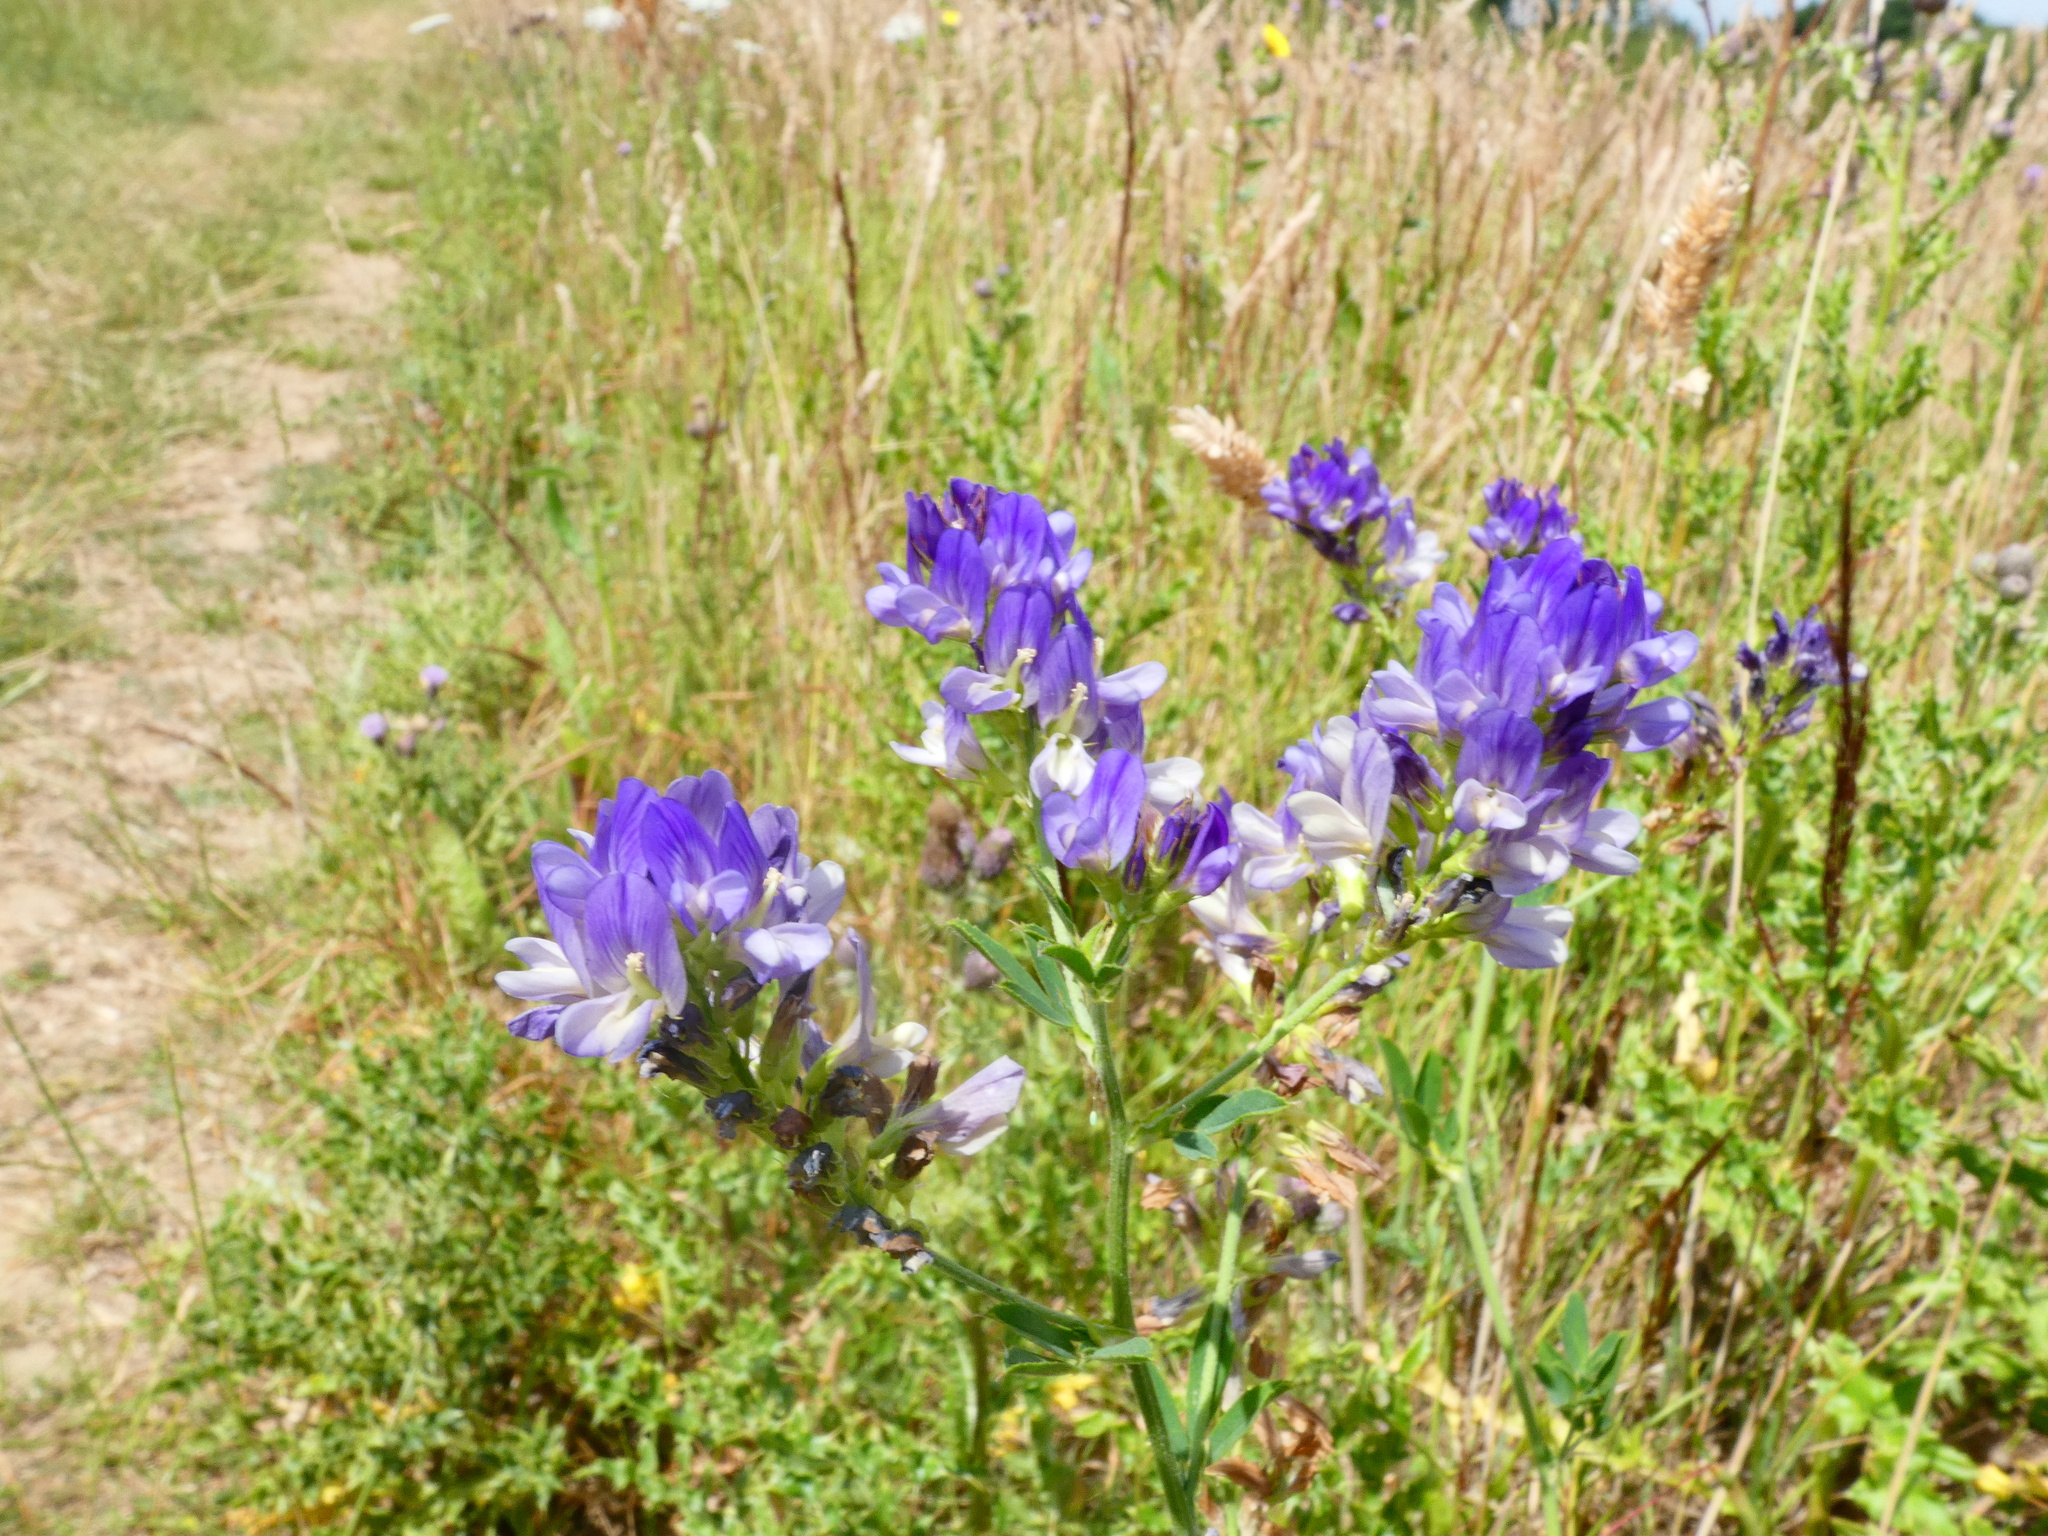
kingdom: Plantae
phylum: Tracheophyta
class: Magnoliopsida
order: Fabales
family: Fabaceae
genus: Medicago
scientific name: Medicago sativa
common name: Alfalfa
